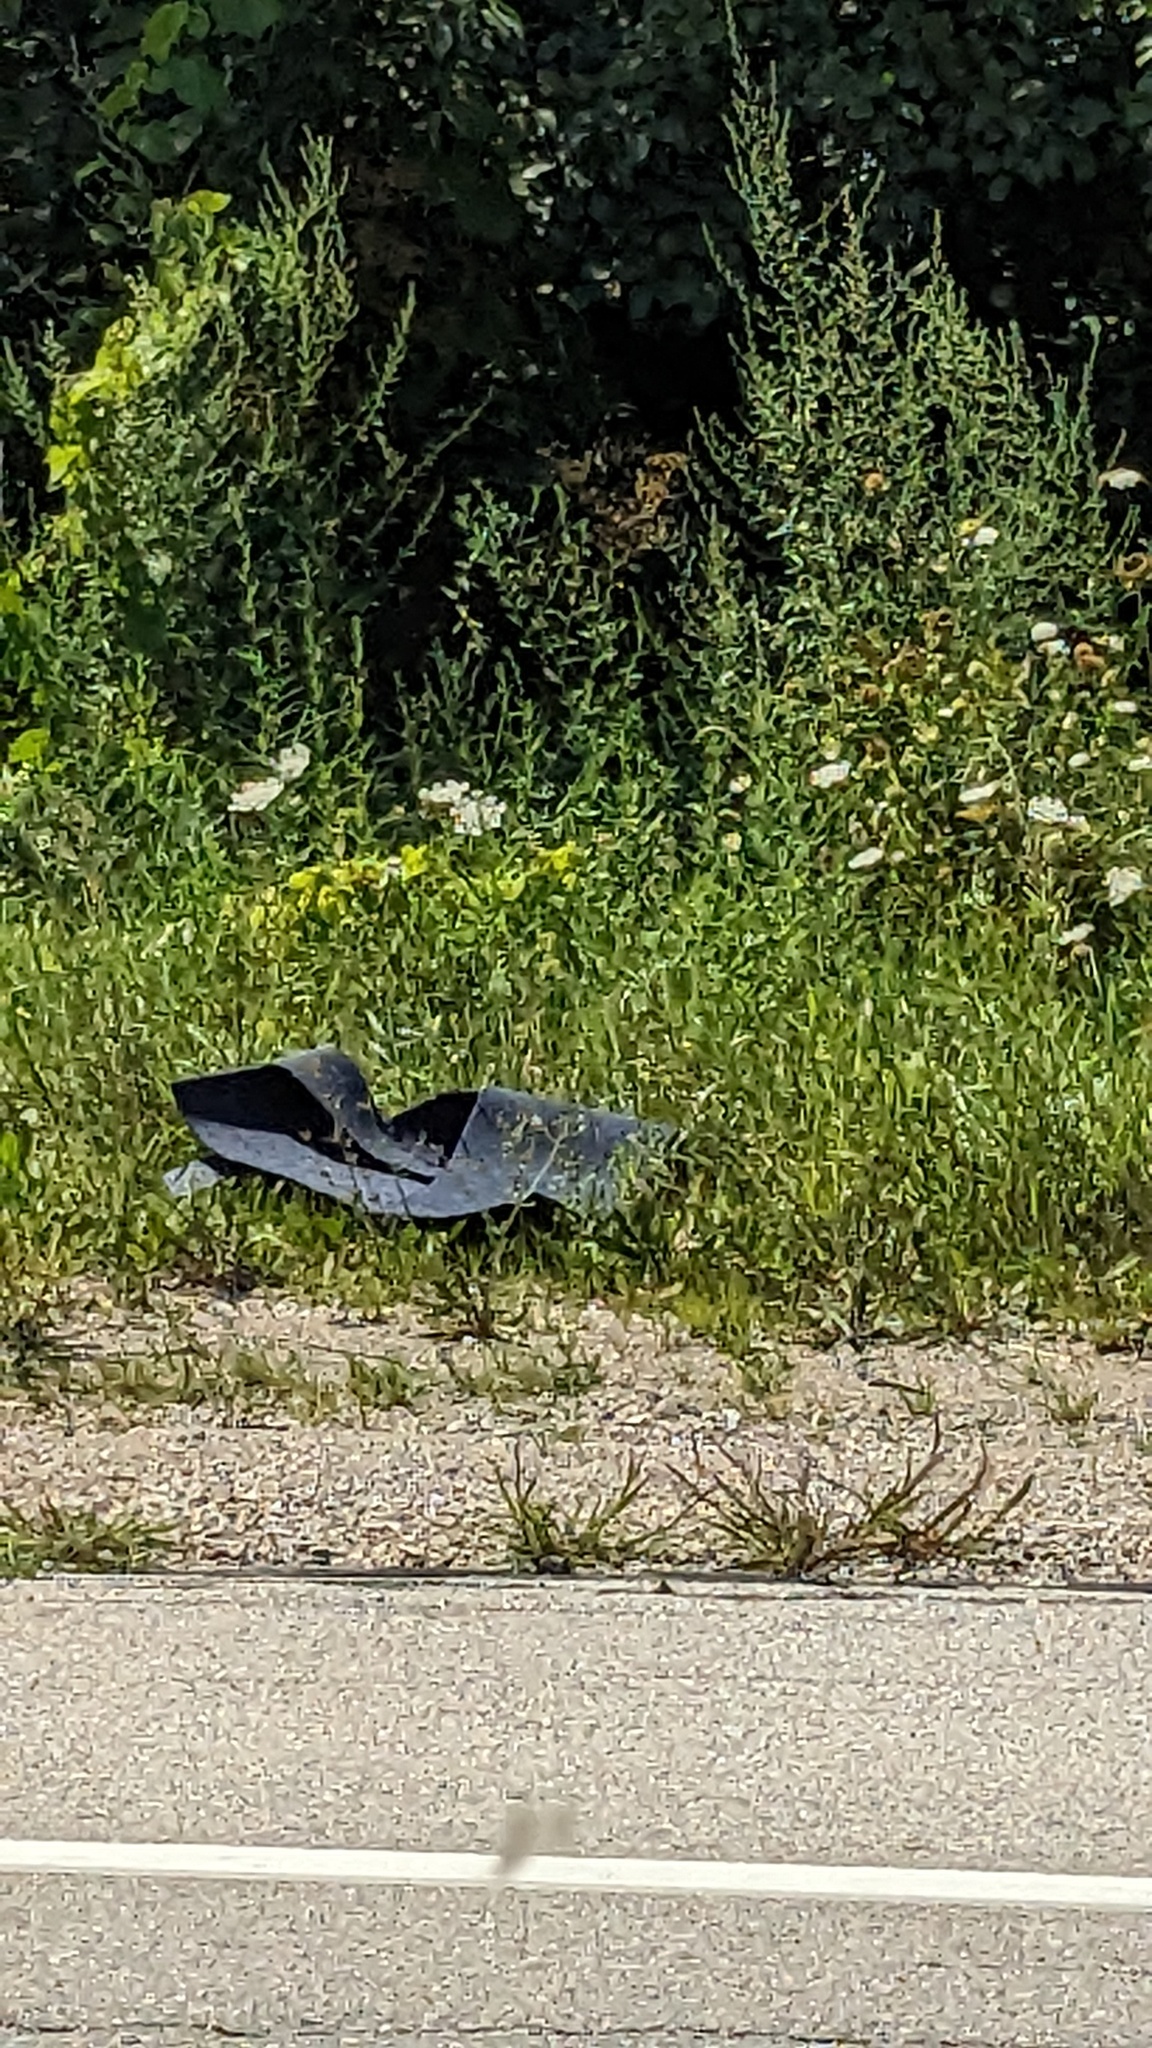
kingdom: Plantae
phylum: Tracheophyta
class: Magnoliopsida
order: Apiales
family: Apiaceae
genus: Daucus
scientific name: Daucus carota
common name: Wild carrot
